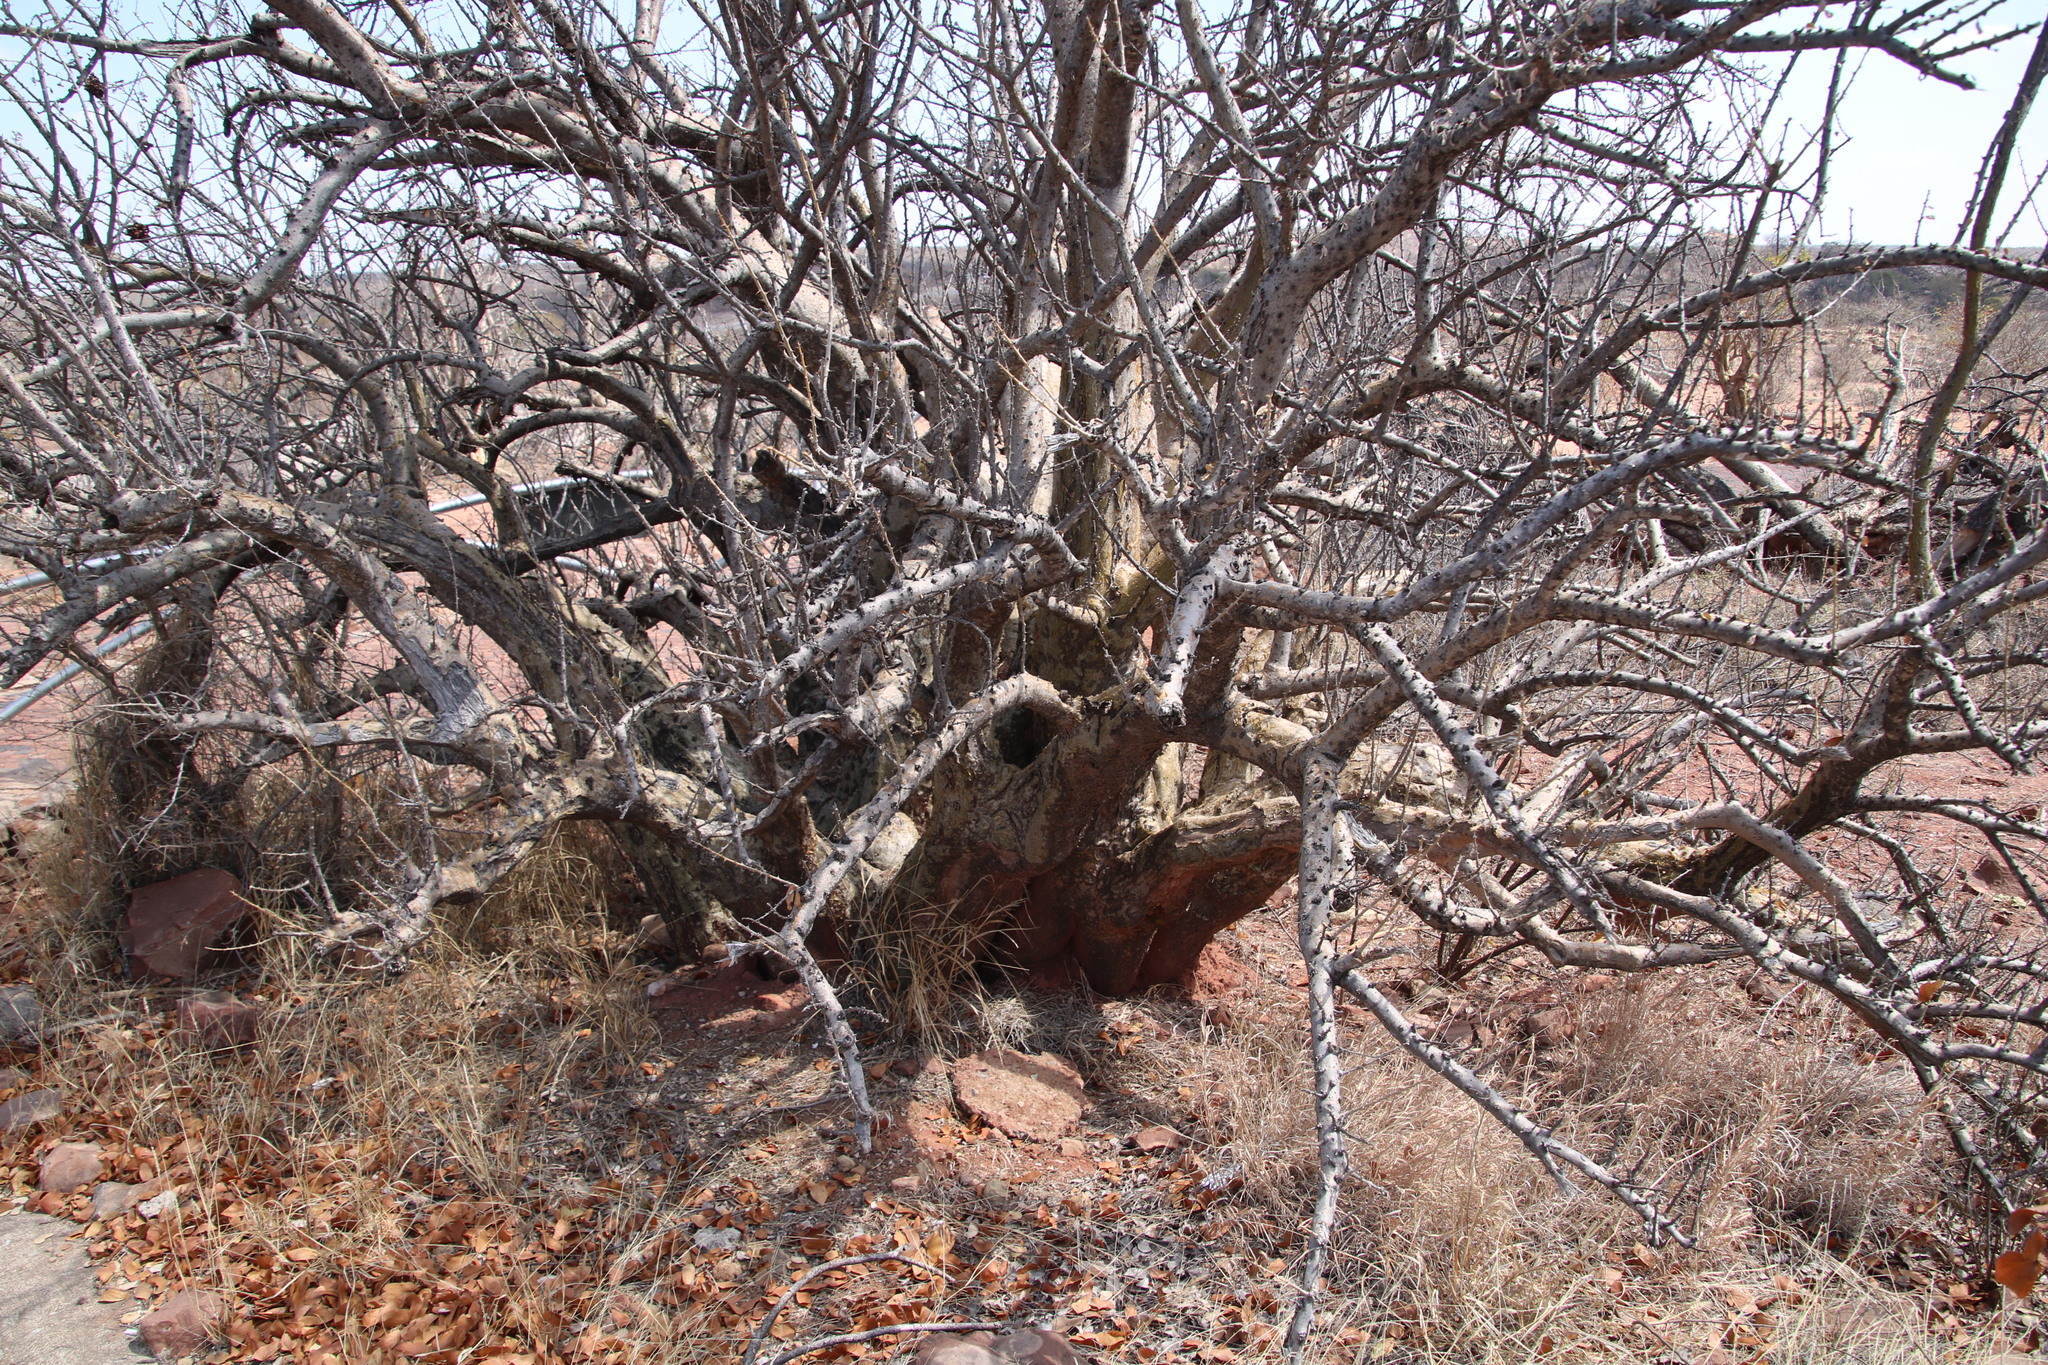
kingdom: Plantae
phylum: Tracheophyta
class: Magnoliopsida
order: Lamiales
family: Pedaliaceae
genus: Sesamothamnus
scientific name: Sesamothamnus lugardii
